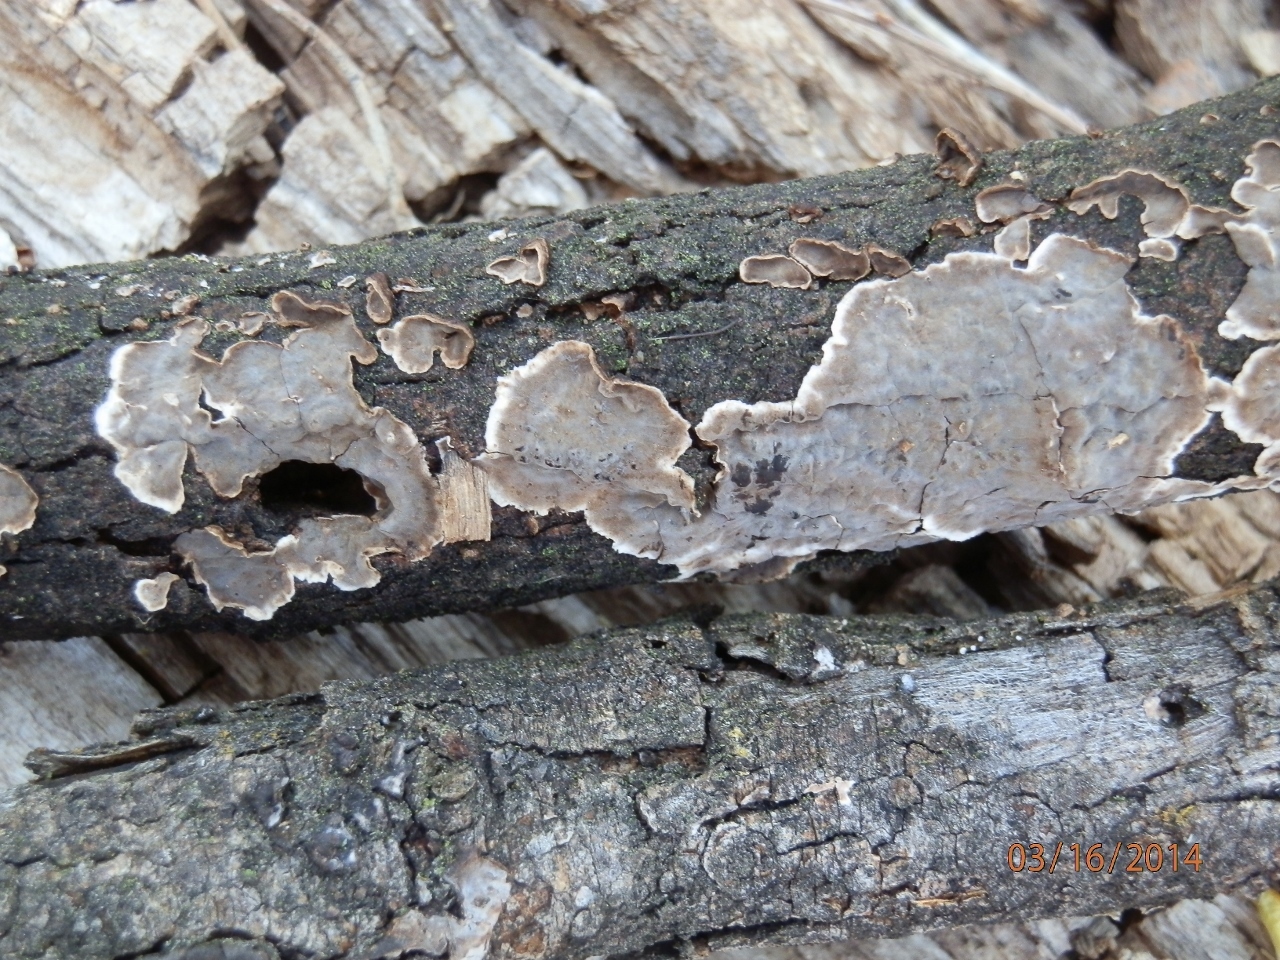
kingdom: Fungi
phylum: Basidiomycota
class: Agaricomycetes
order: Russulales
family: Peniophoraceae
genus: Peniophora
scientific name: Peniophora tamaricicola
